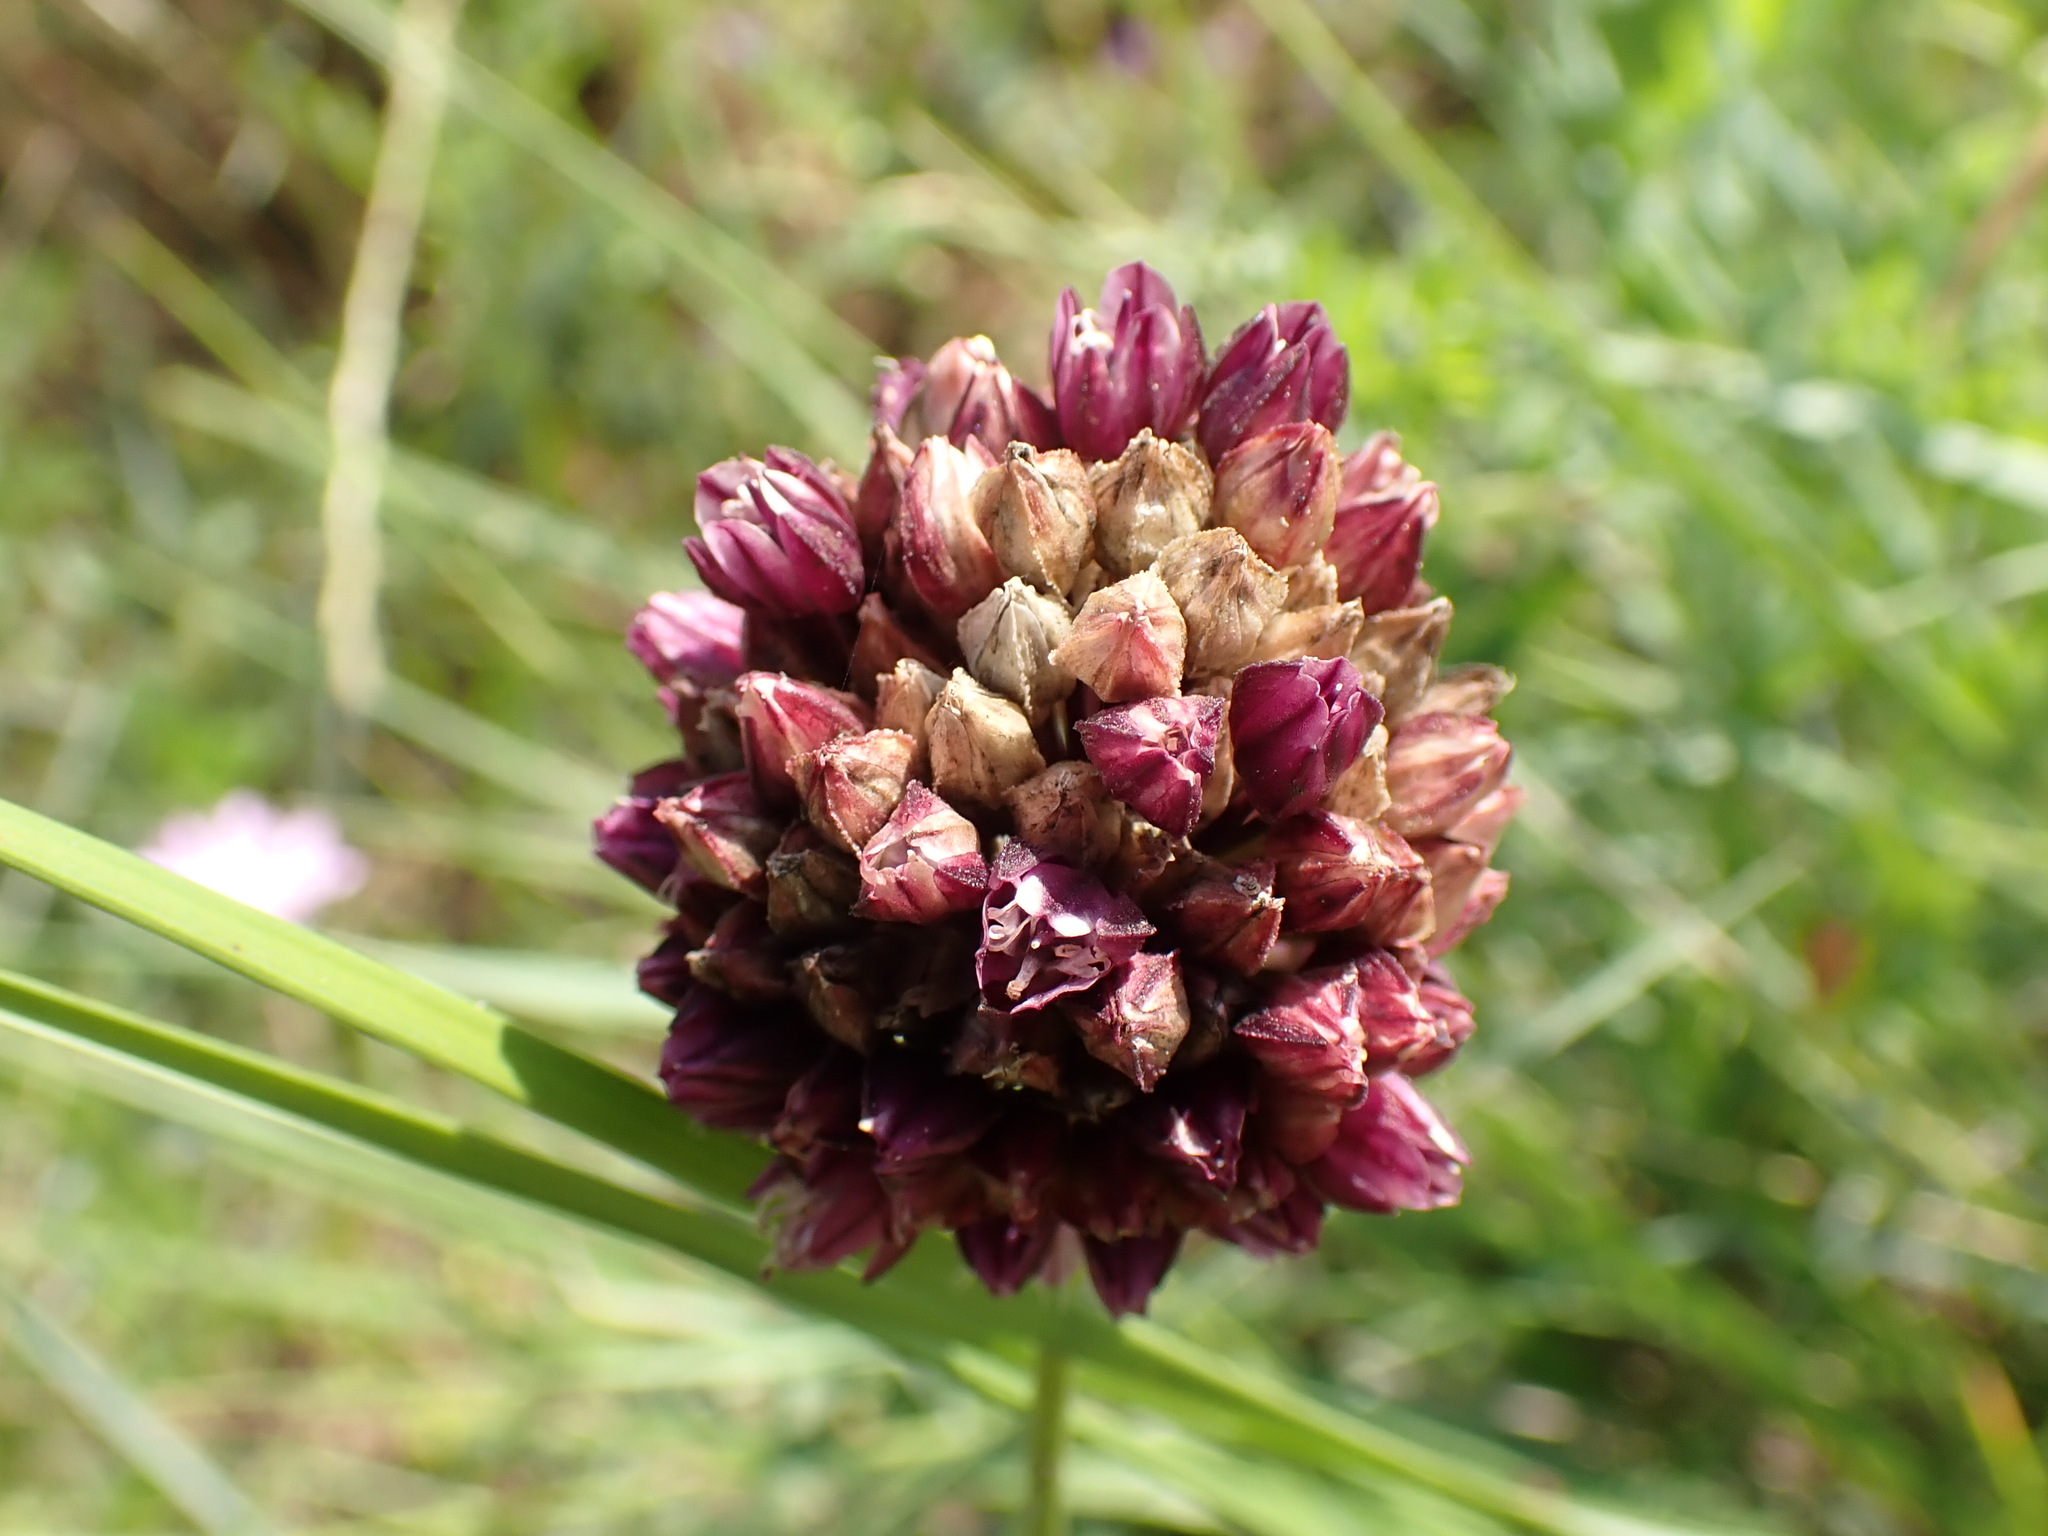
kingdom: Plantae
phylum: Tracheophyta
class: Liliopsida
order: Asparagales
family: Amaryllidaceae
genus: Allium
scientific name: Allium rotundum
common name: Sand leek
